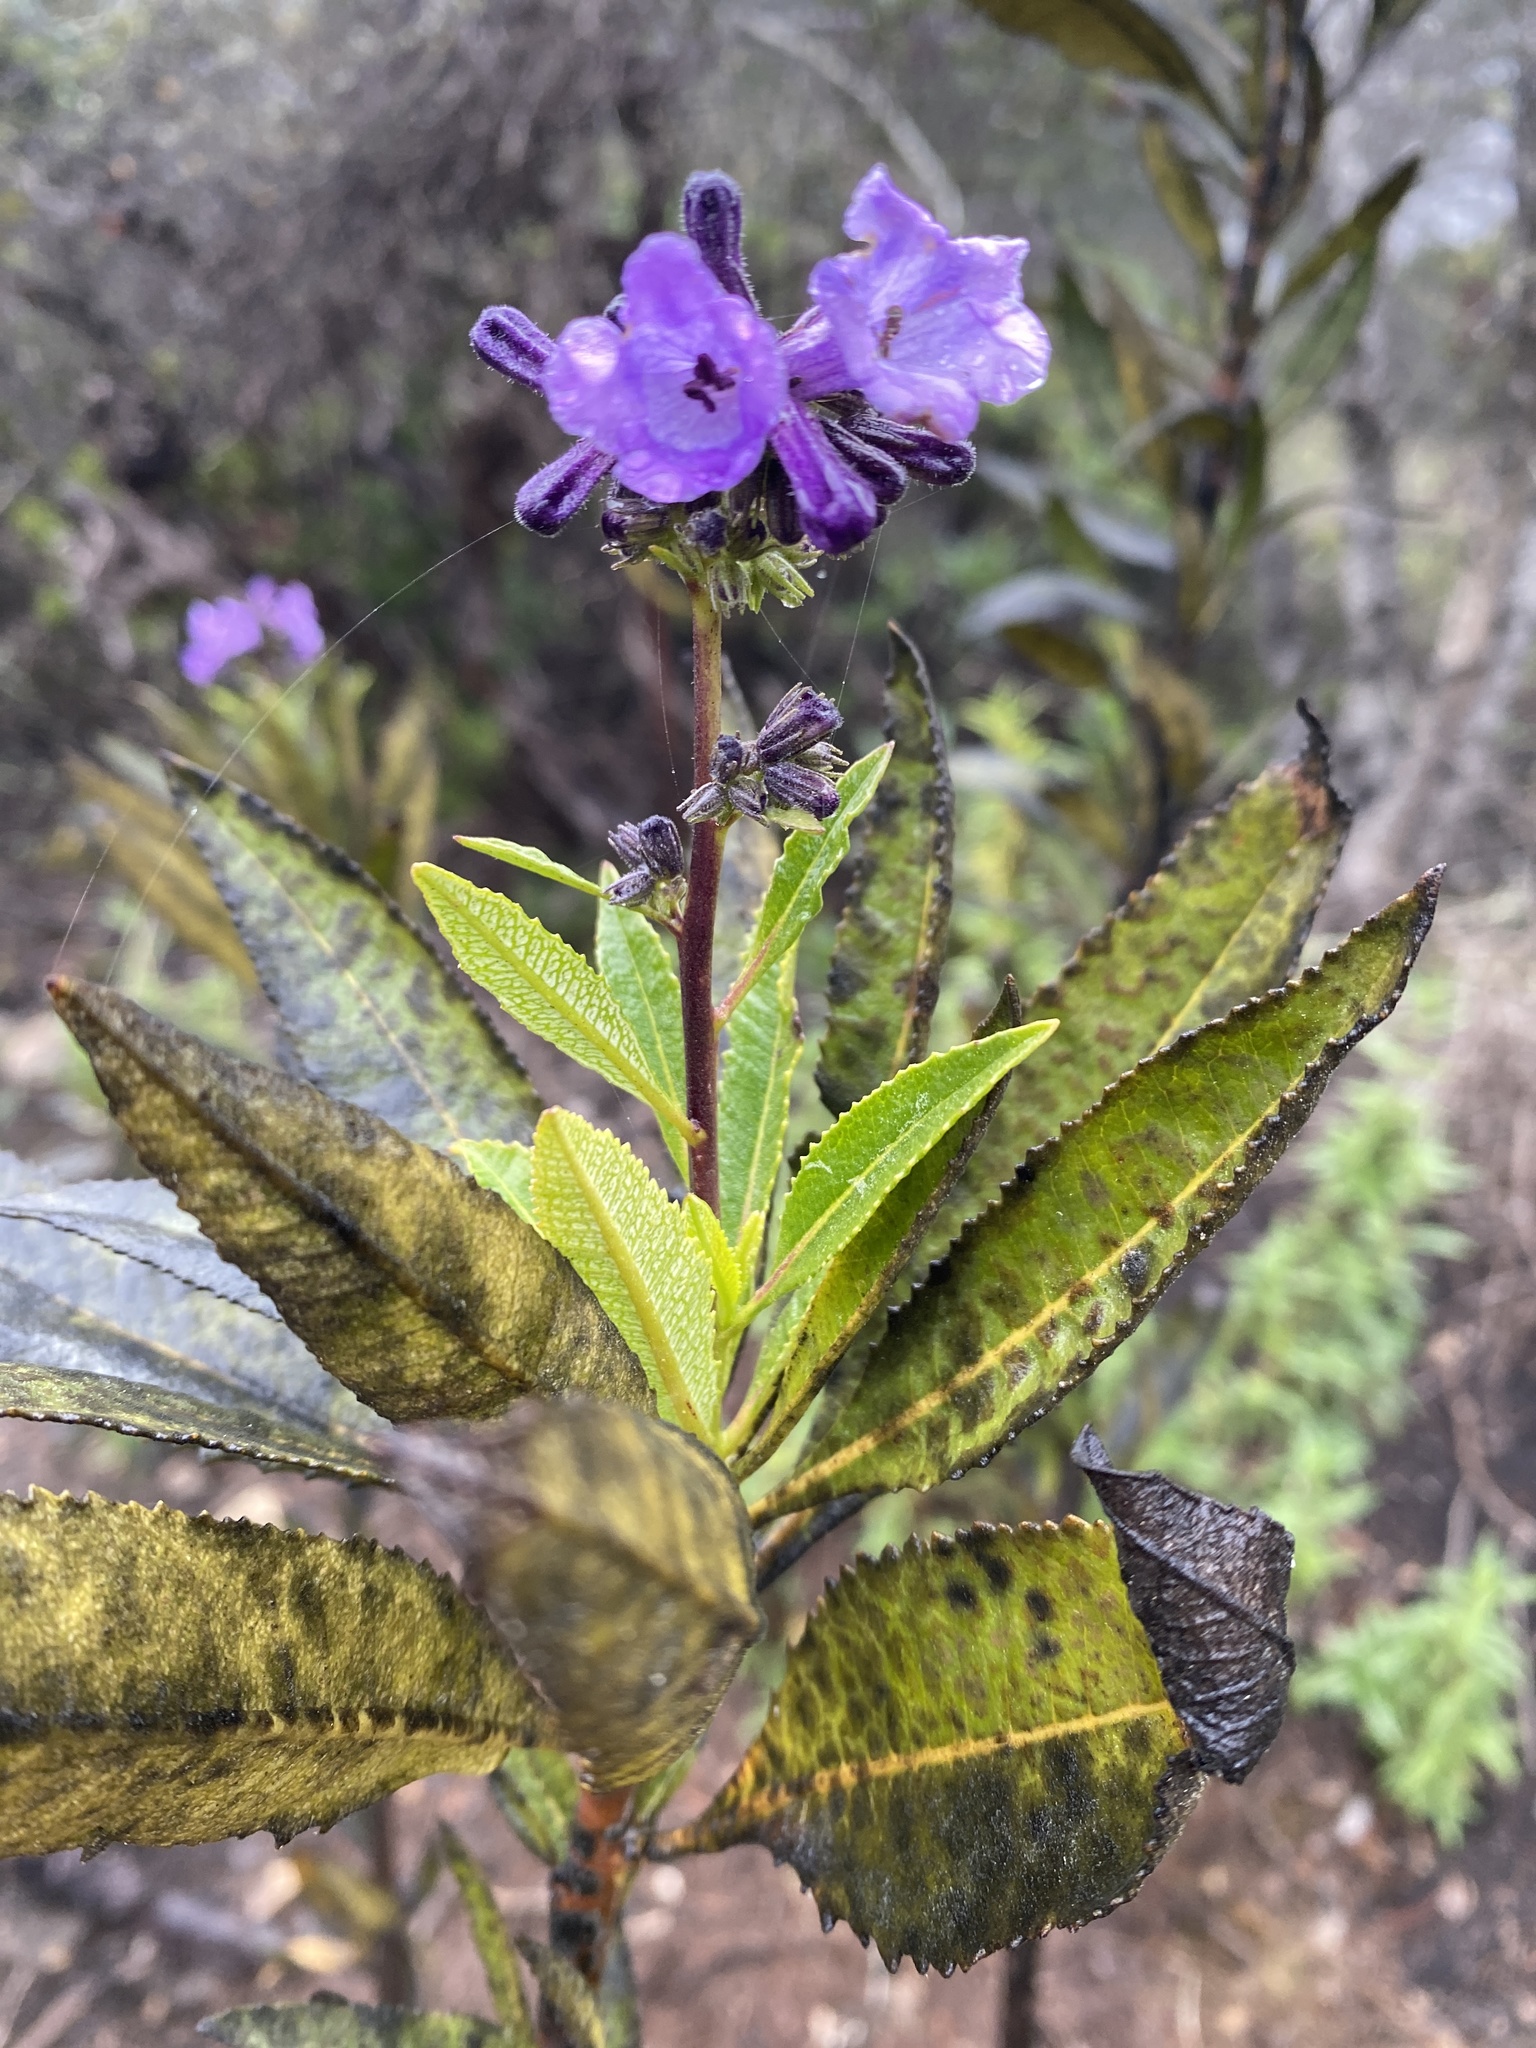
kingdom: Plantae
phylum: Tracheophyta
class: Magnoliopsida
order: Boraginales
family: Namaceae
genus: Eriodictyon
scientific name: Eriodictyon californicum
